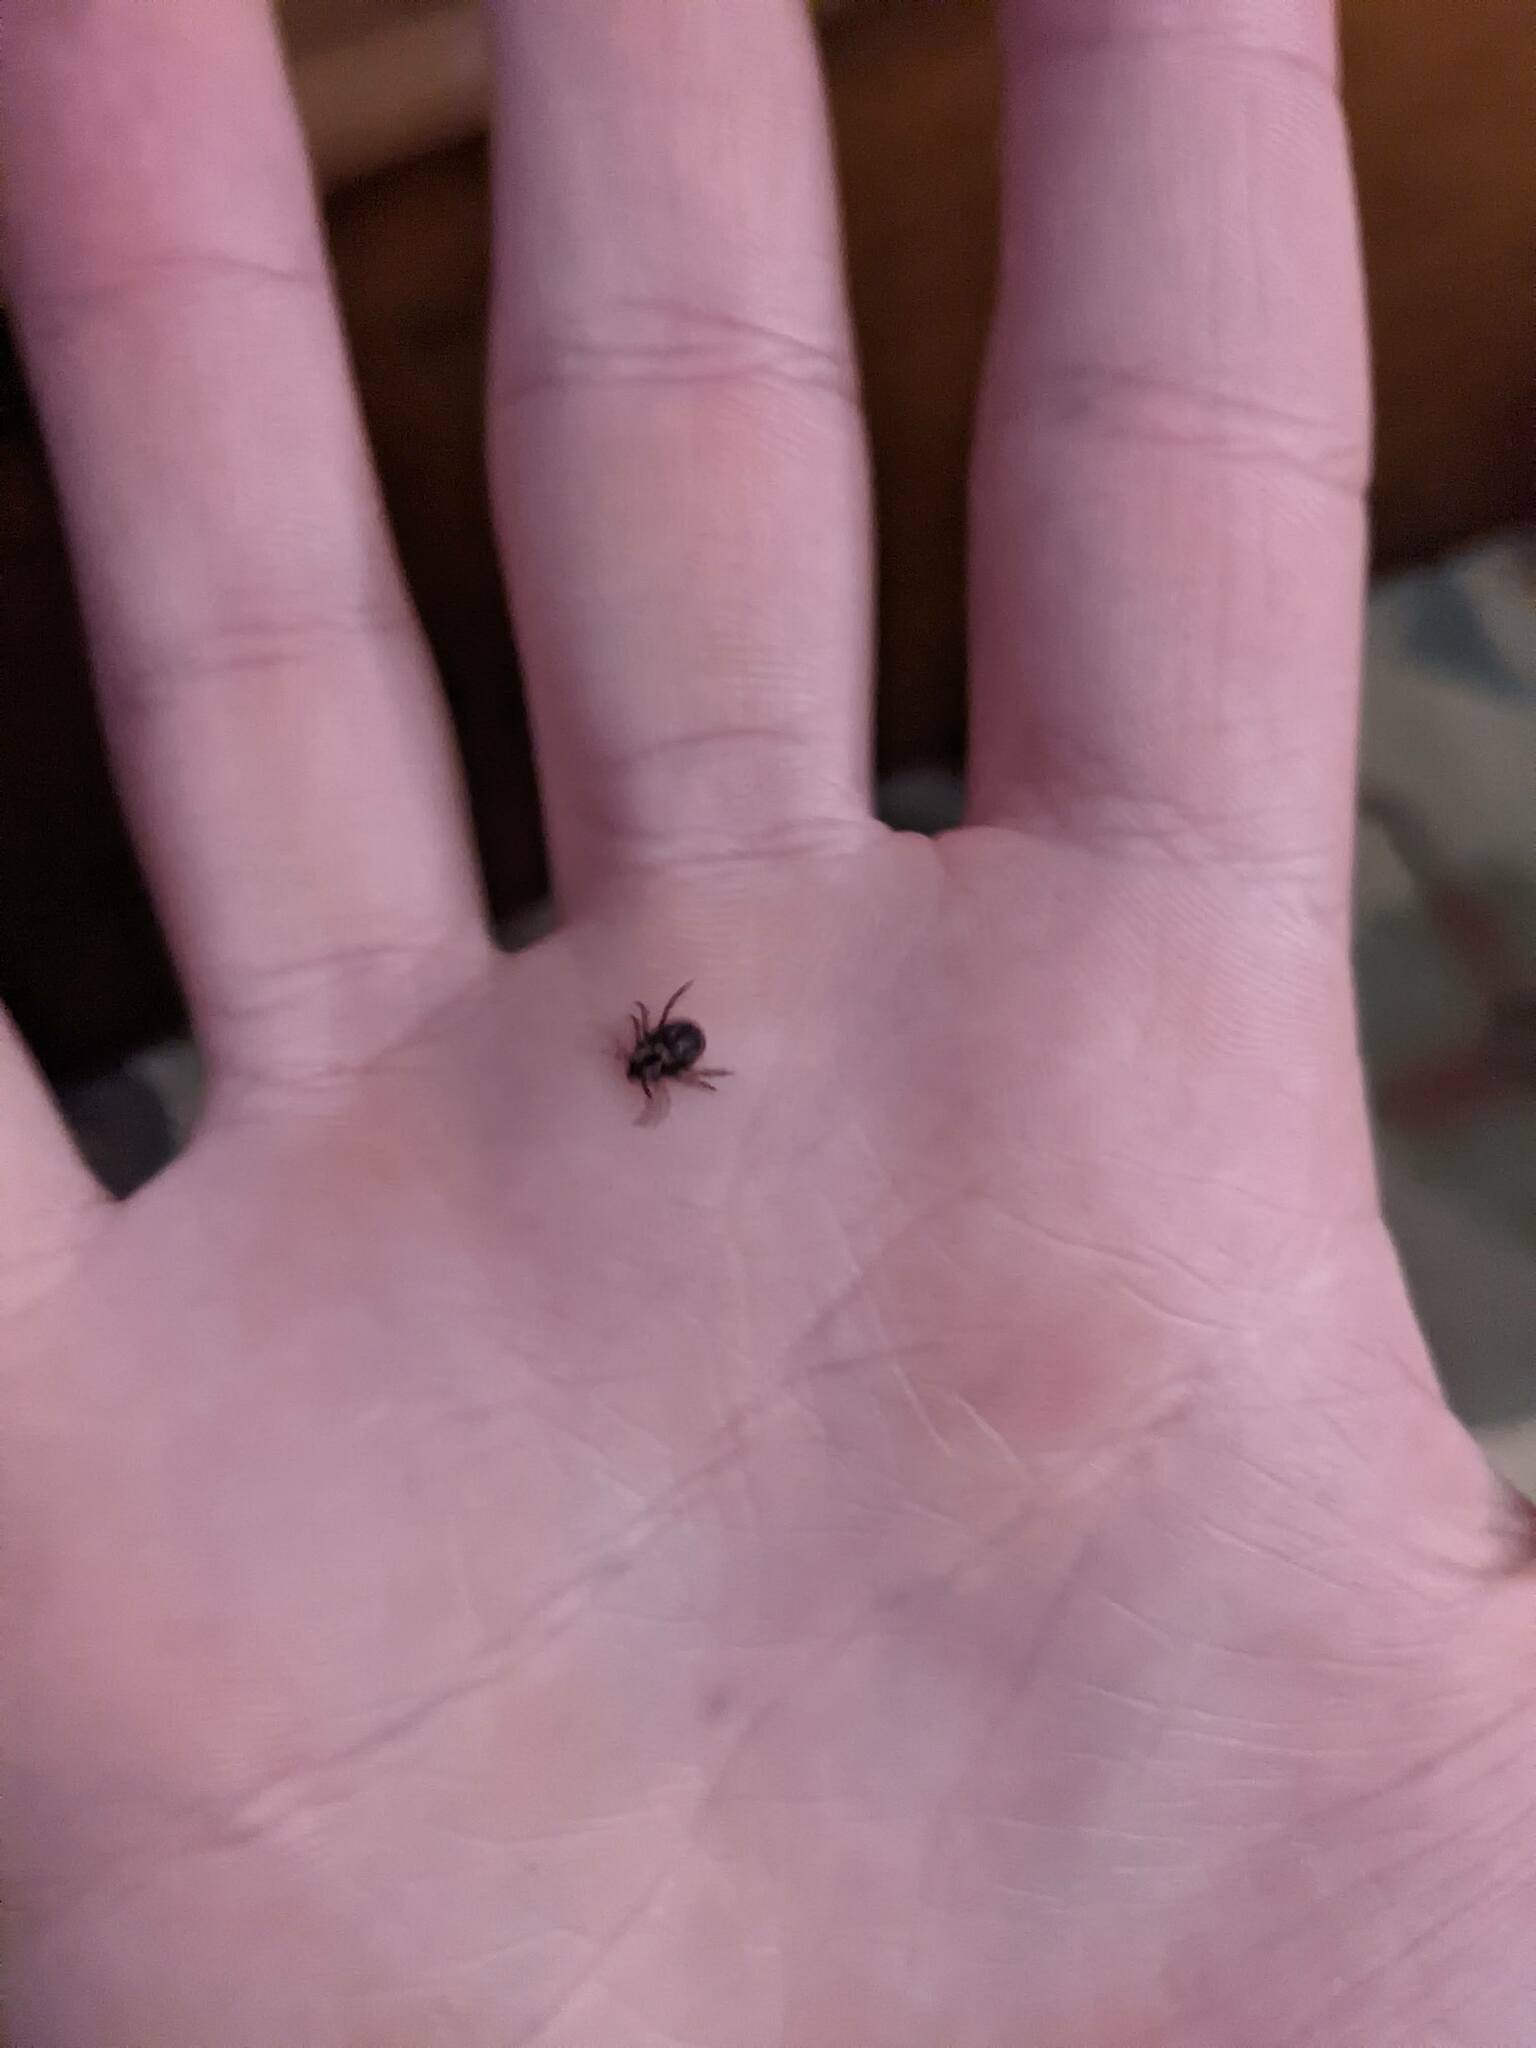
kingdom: Animalia
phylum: Arthropoda
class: Arachnida
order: Ixodida
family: Ixodidae
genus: Dermacentor
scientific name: Dermacentor variabilis
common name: American dog tick
